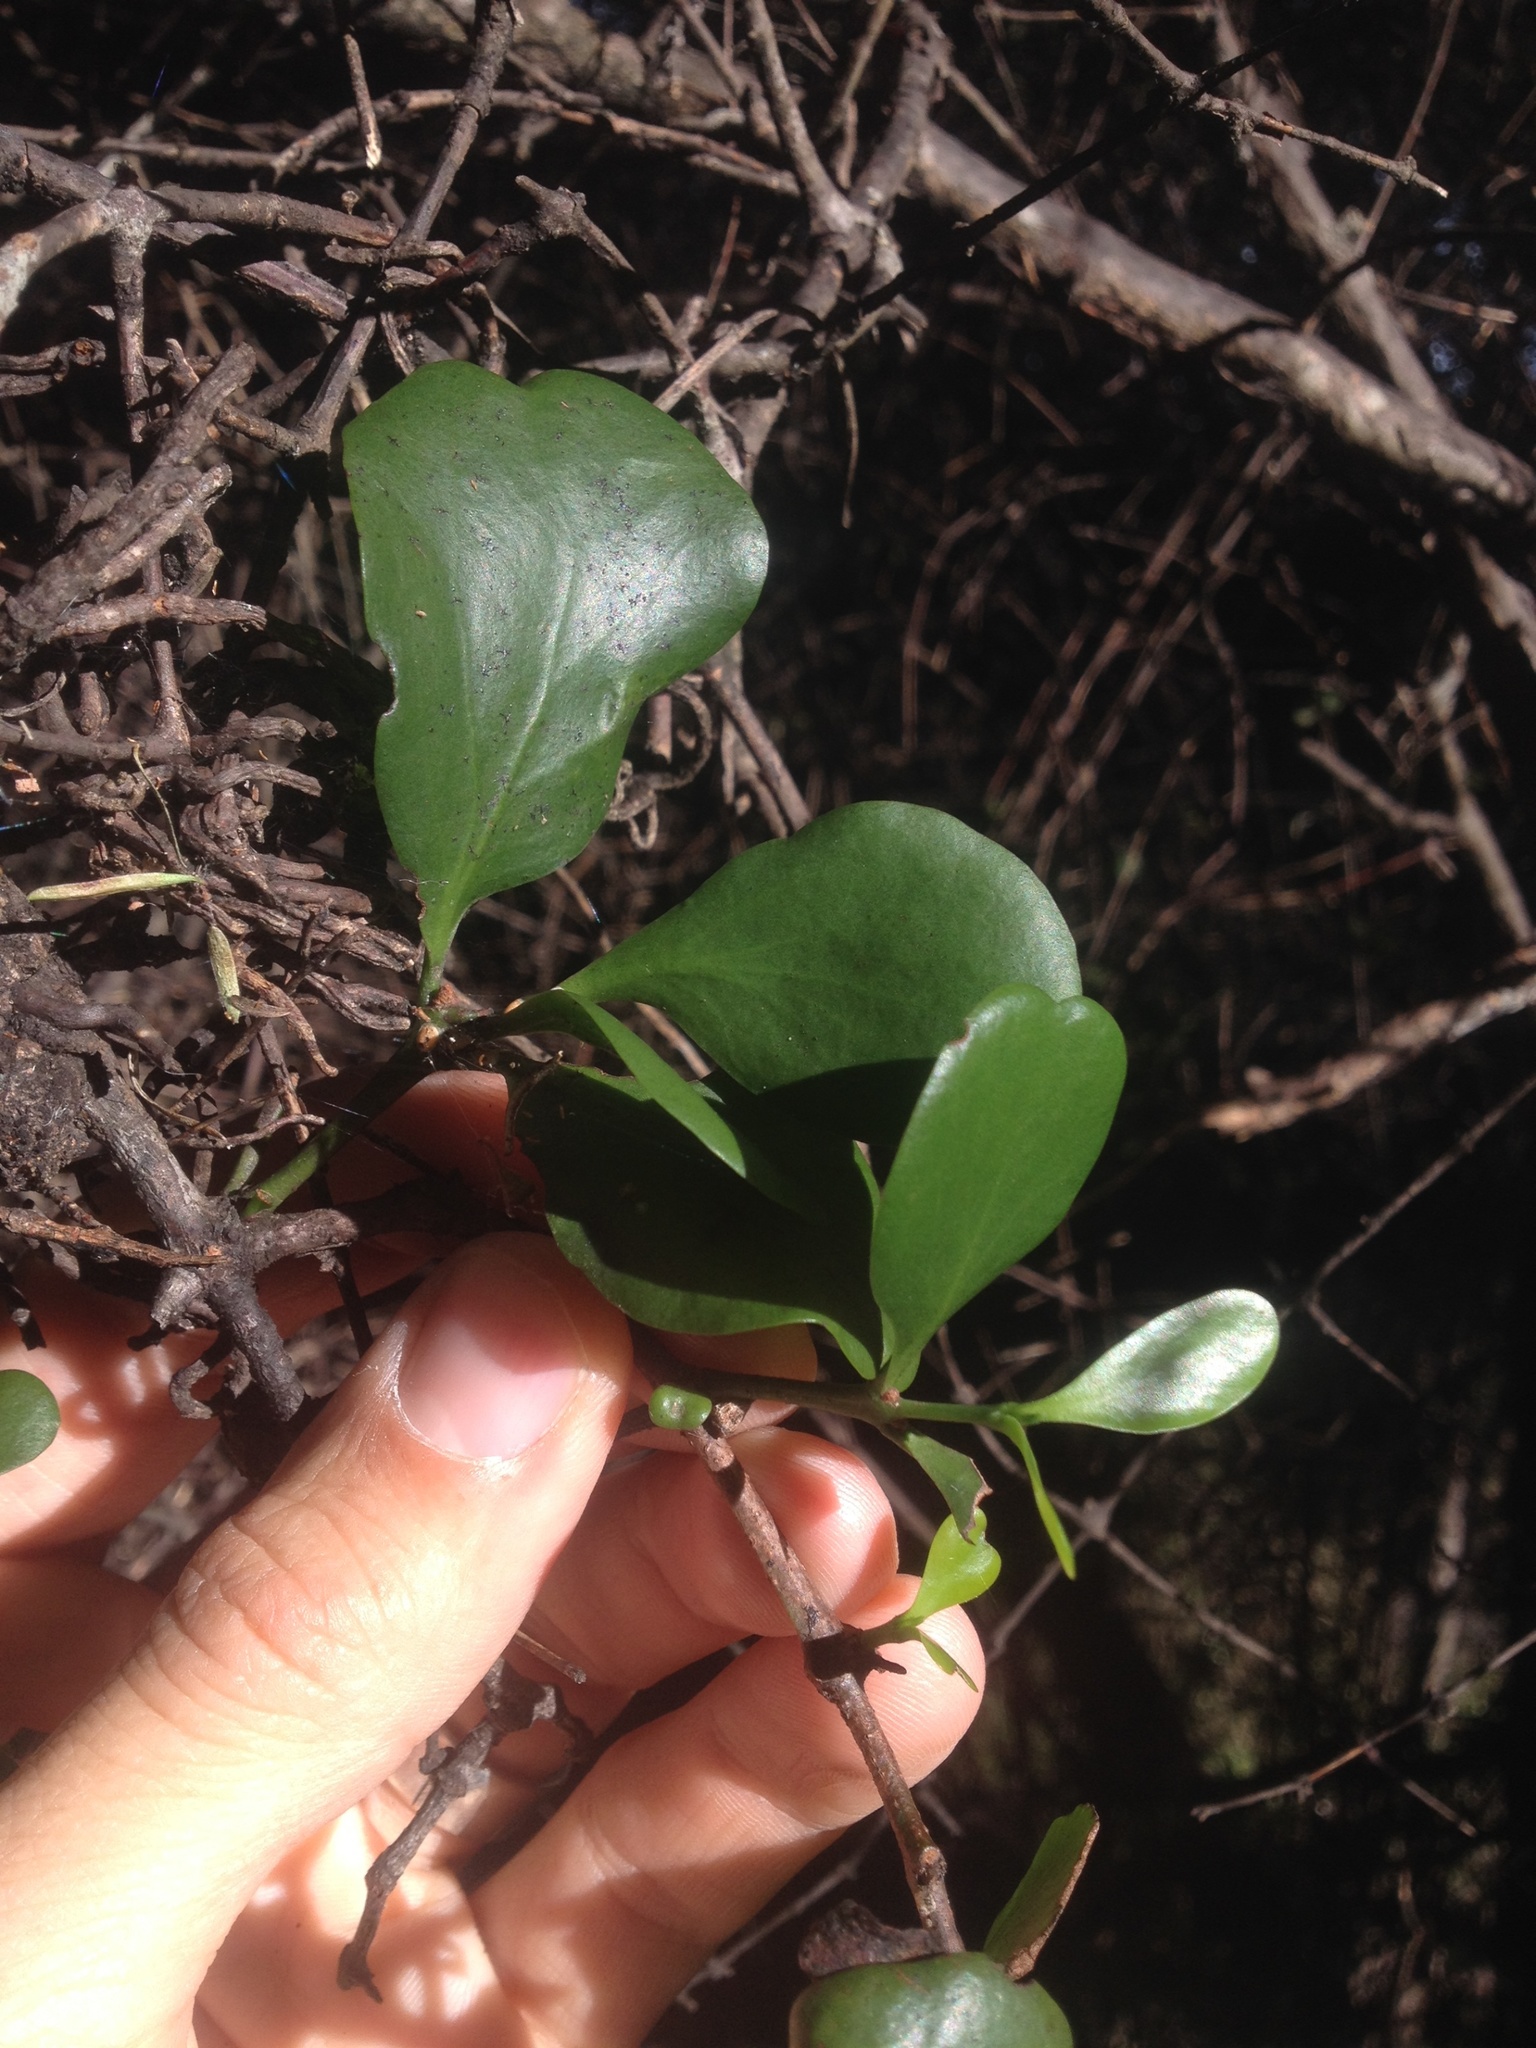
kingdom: Plantae
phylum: Tracheophyta
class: Magnoliopsida
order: Santalales
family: Loranthaceae
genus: Ileostylus
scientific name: Ileostylus micranthus
